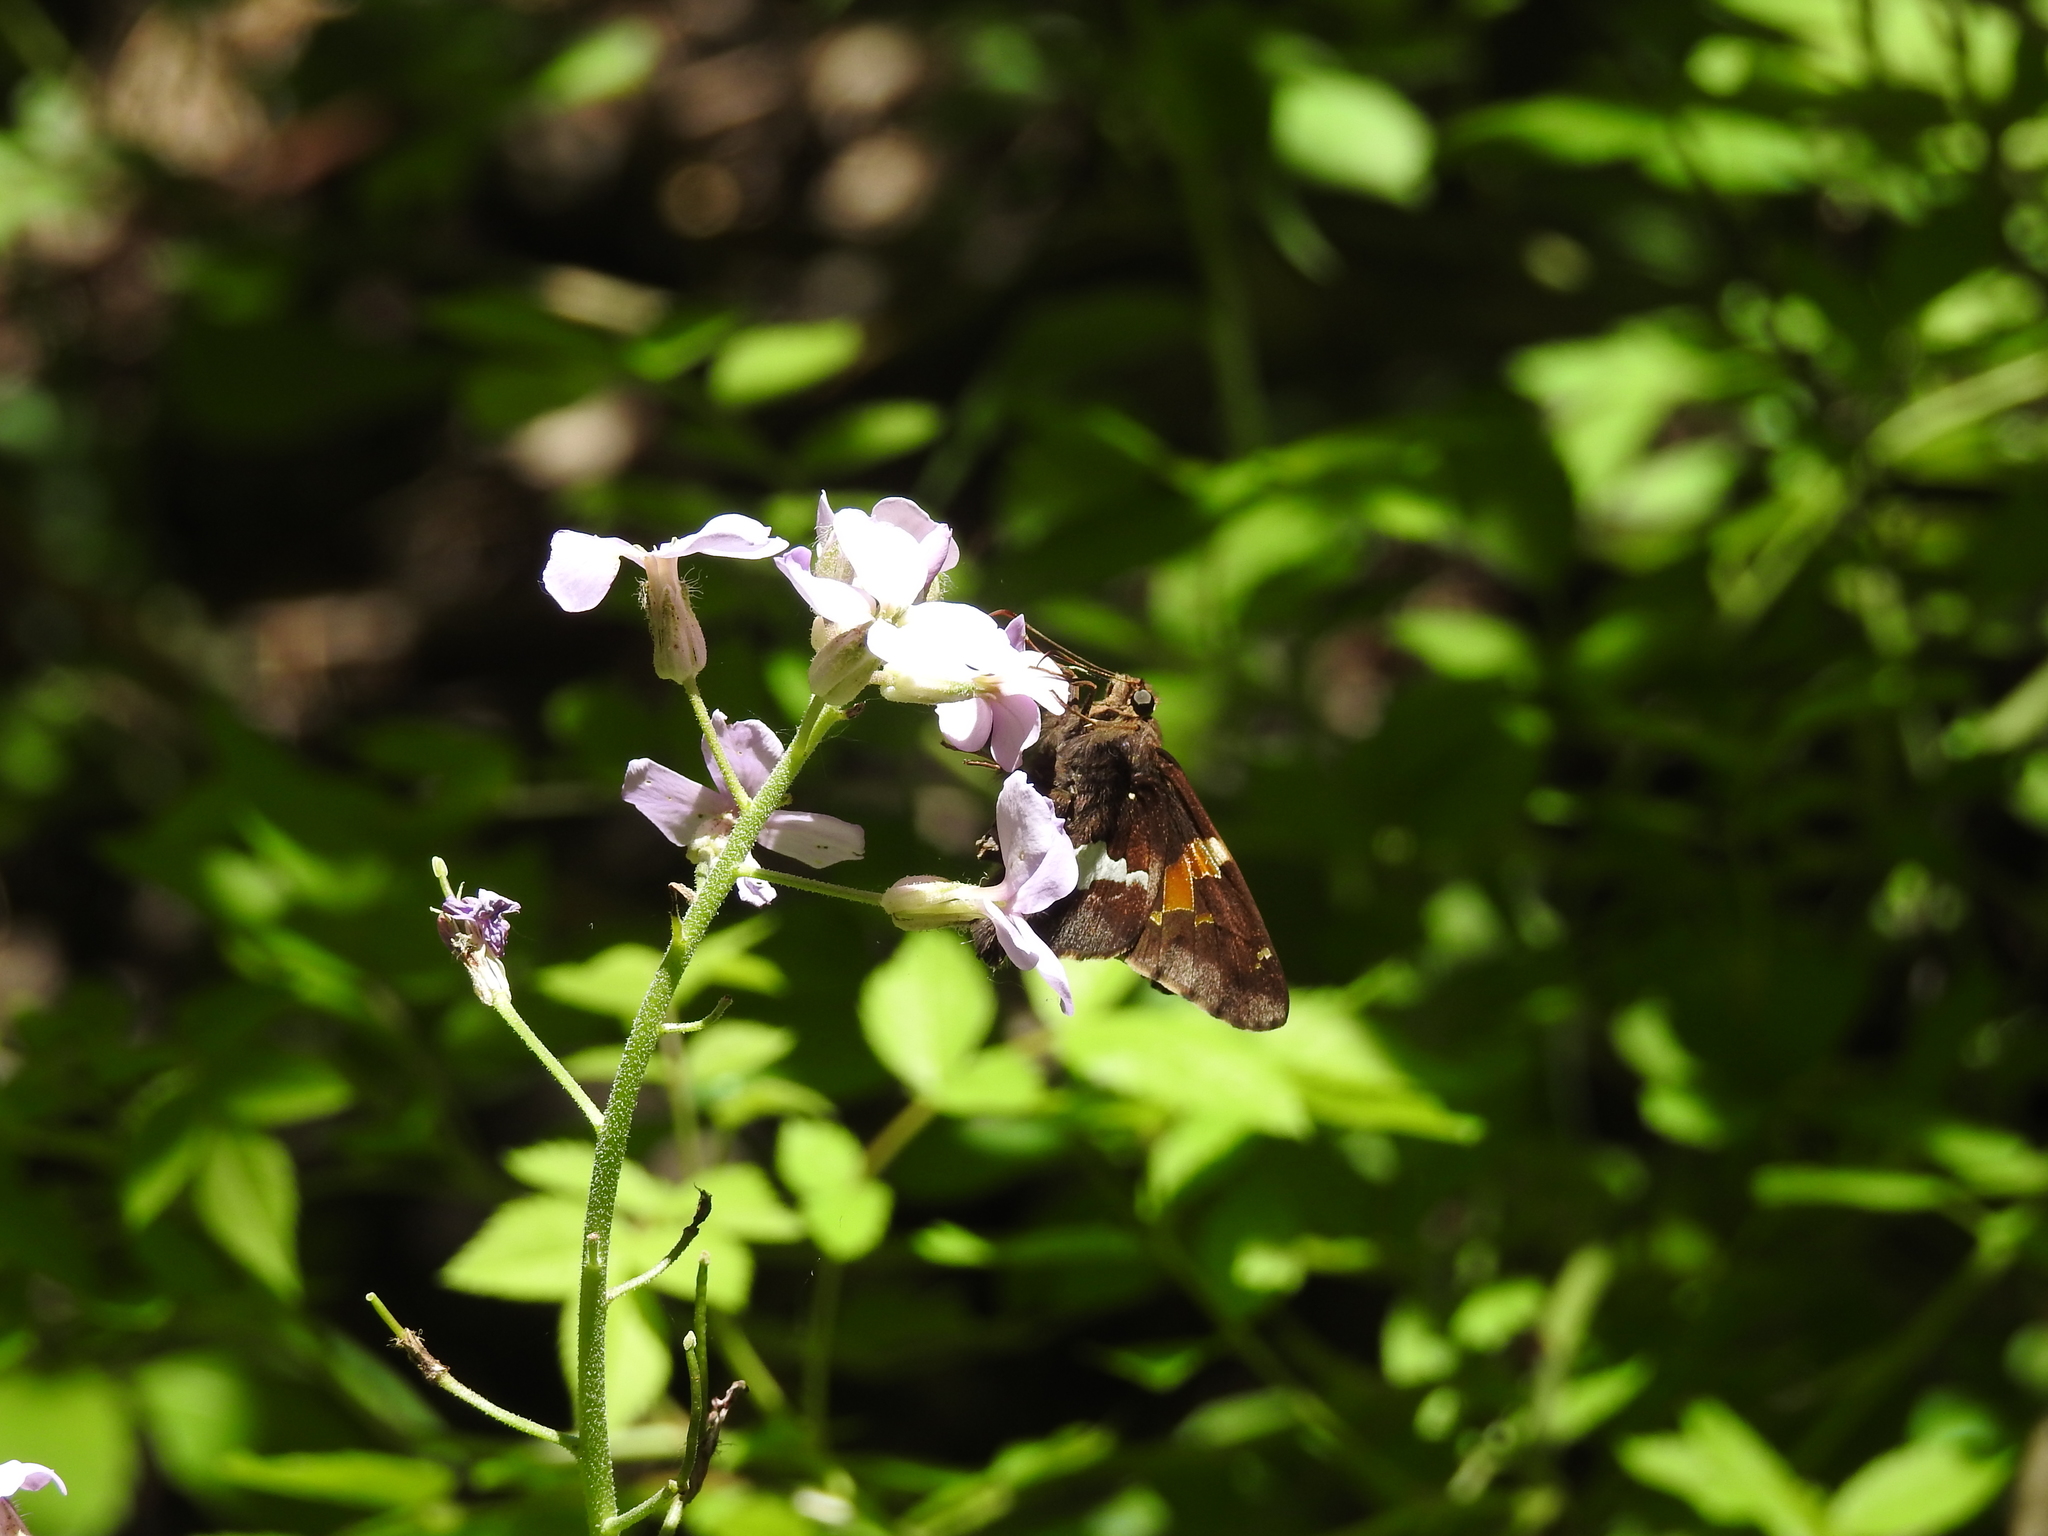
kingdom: Animalia
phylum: Arthropoda
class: Insecta
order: Lepidoptera
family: Hesperiidae
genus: Epargyreus
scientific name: Epargyreus clarus
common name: Silver-spotted skipper
